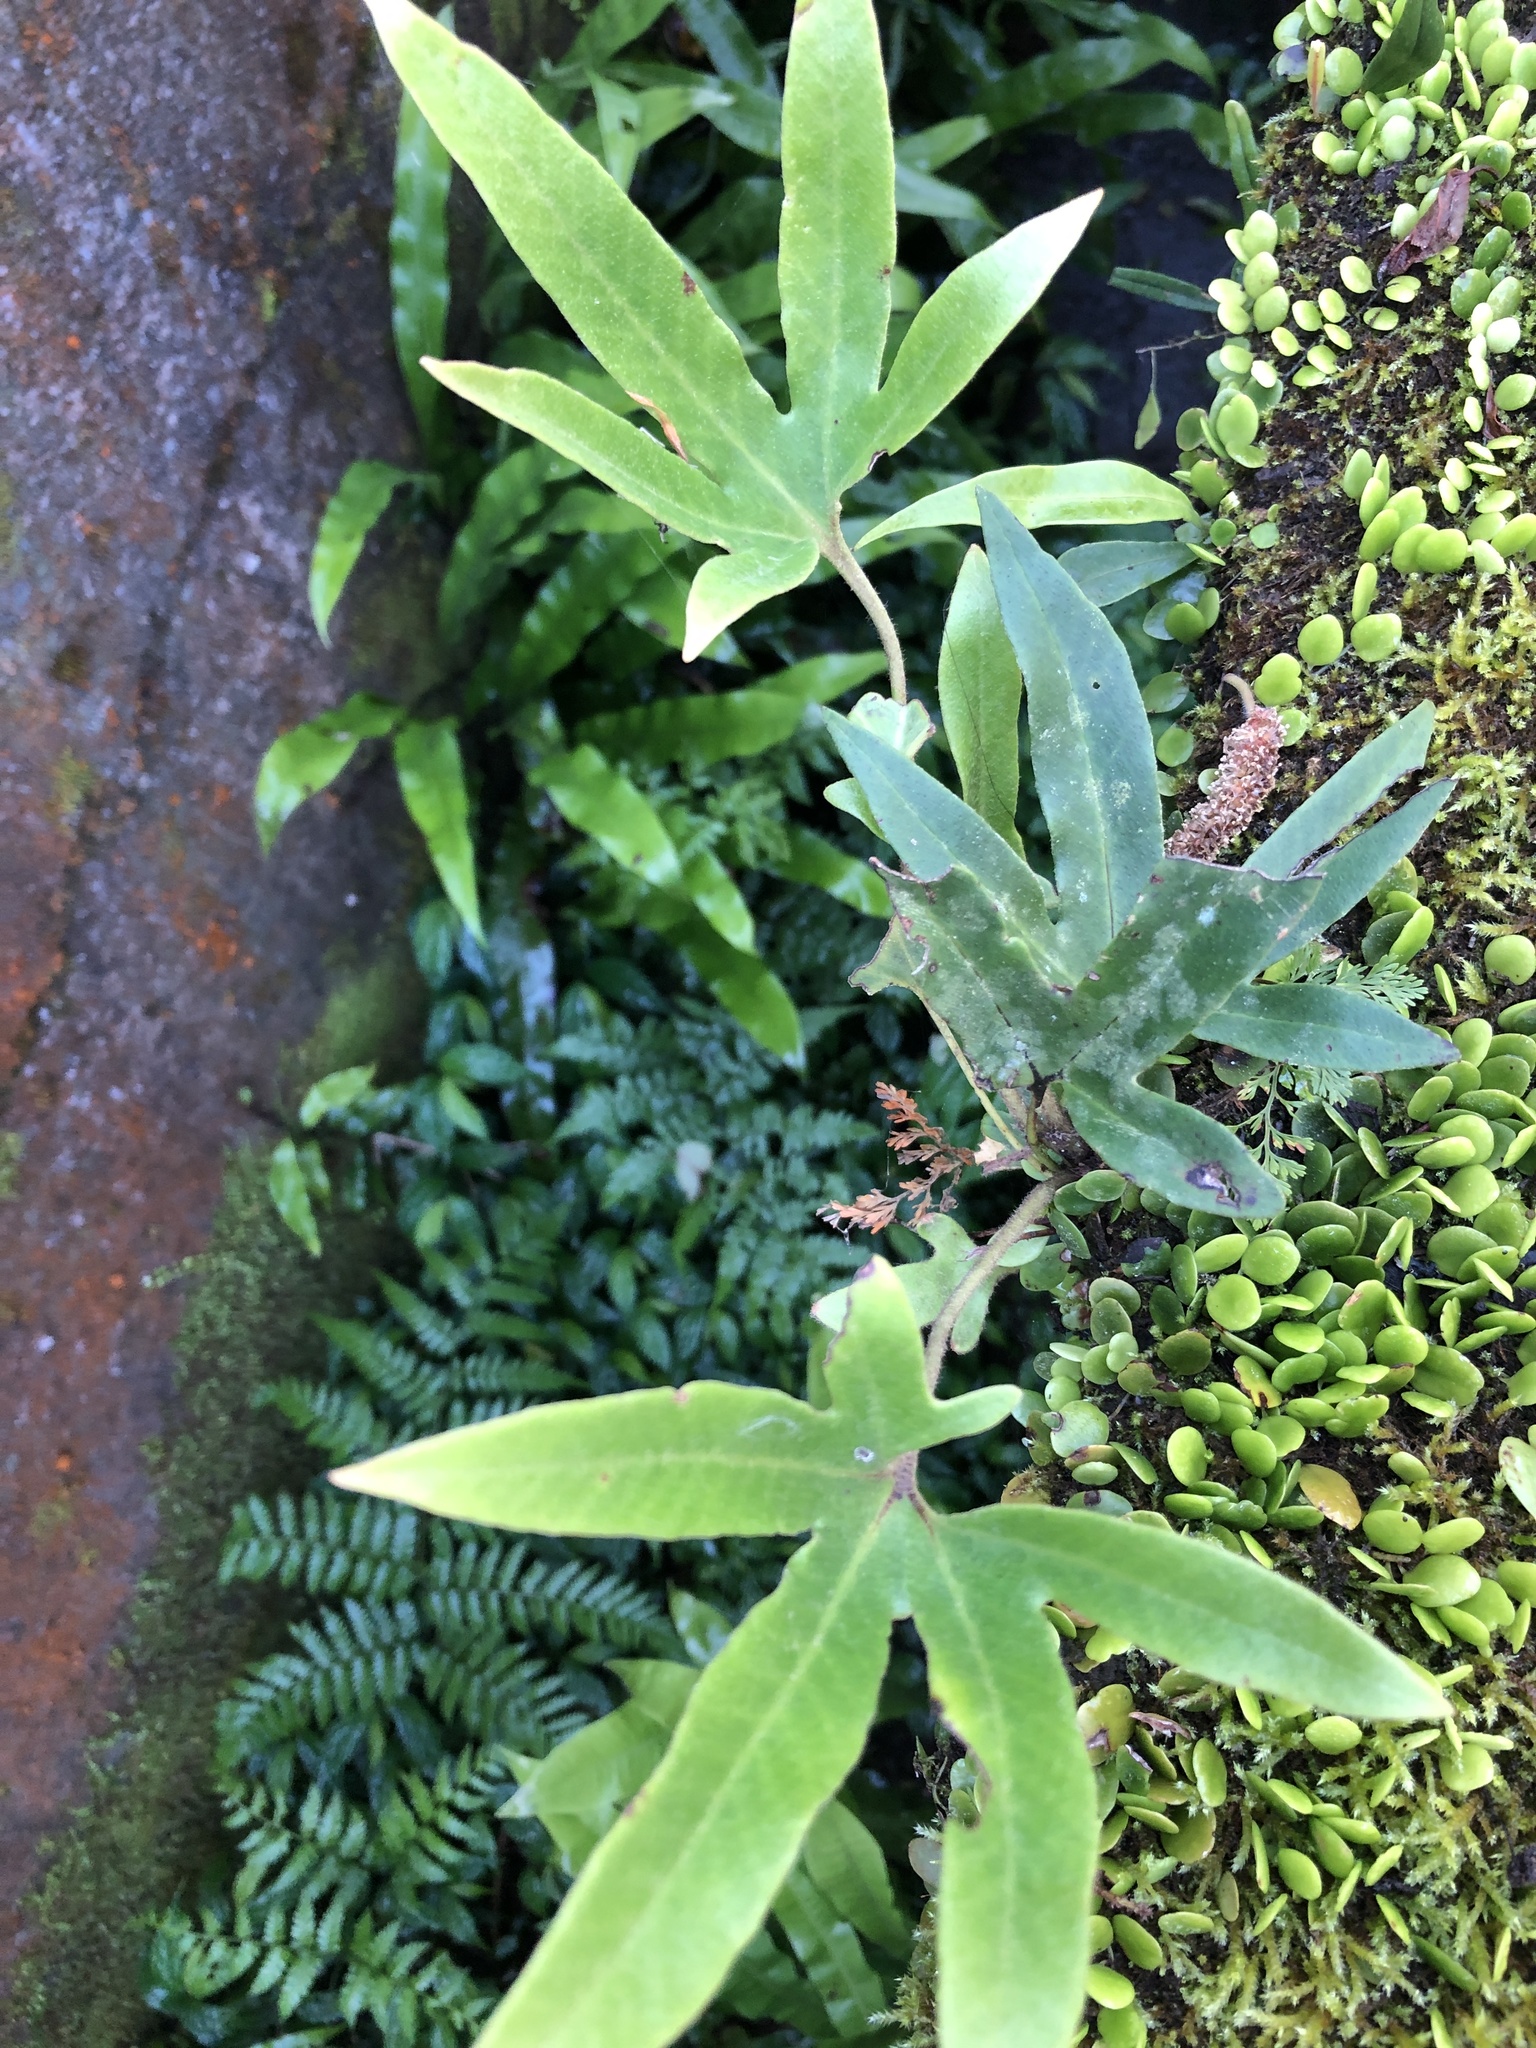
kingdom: Plantae
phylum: Tracheophyta
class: Polypodiopsida
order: Polypodiales
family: Polypodiaceae
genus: Pyrrosia
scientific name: Pyrrosia polydactyla
